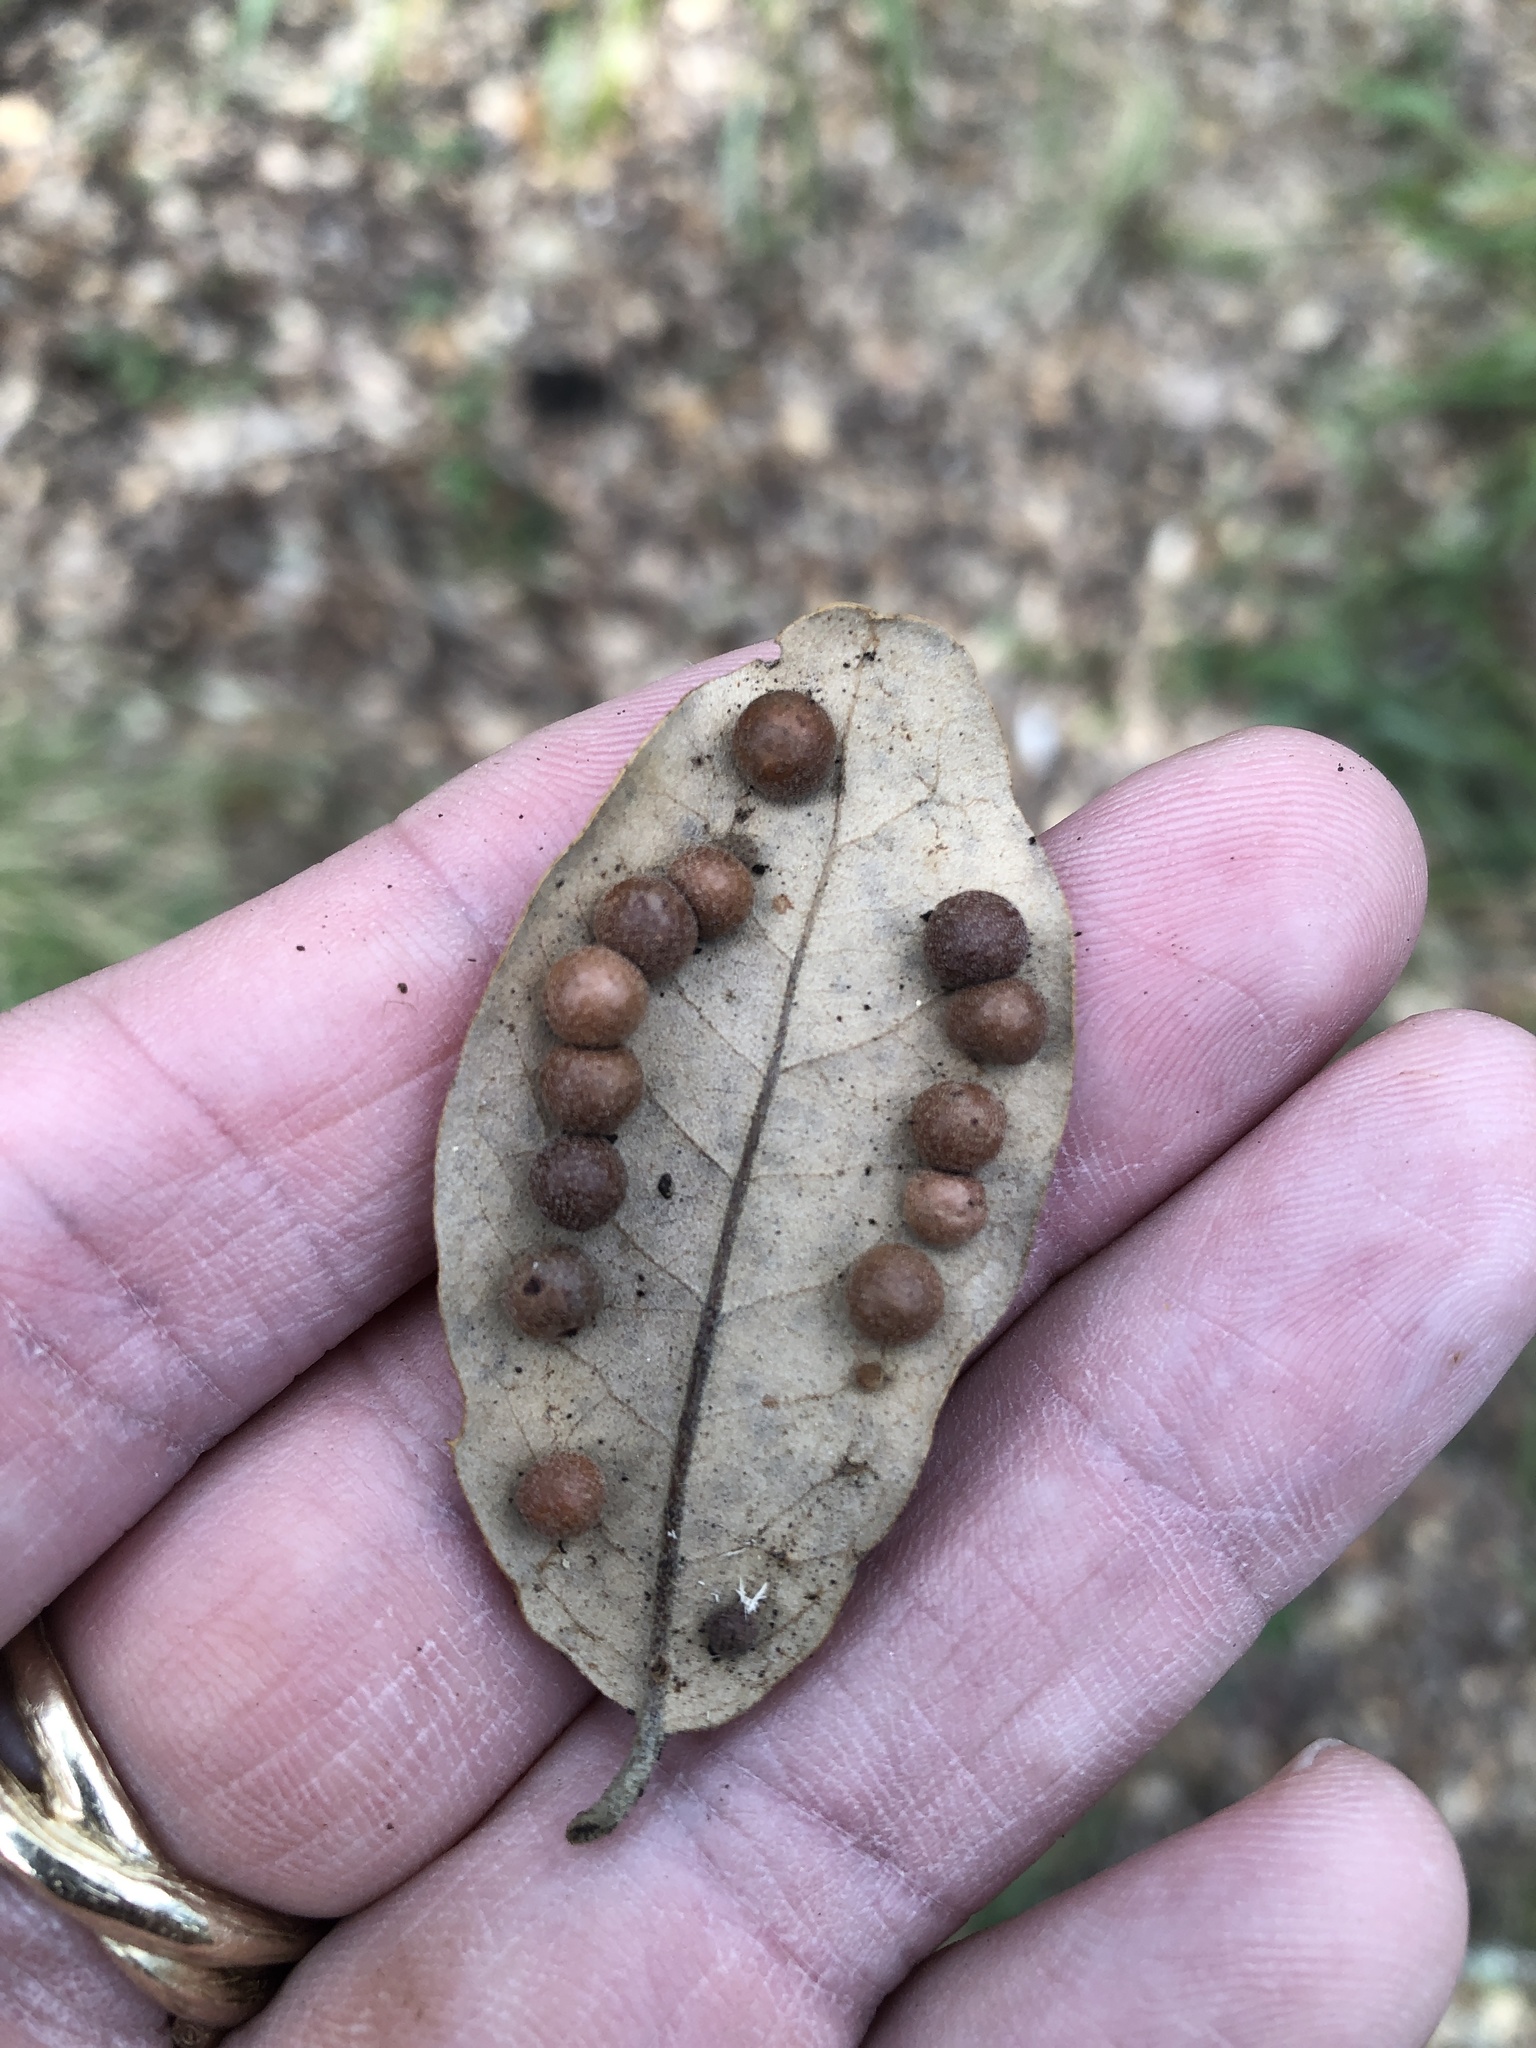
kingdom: Animalia
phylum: Arthropoda
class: Insecta
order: Hymenoptera
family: Cynipidae
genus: Belonocnema
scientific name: Belonocnema kinseyi
